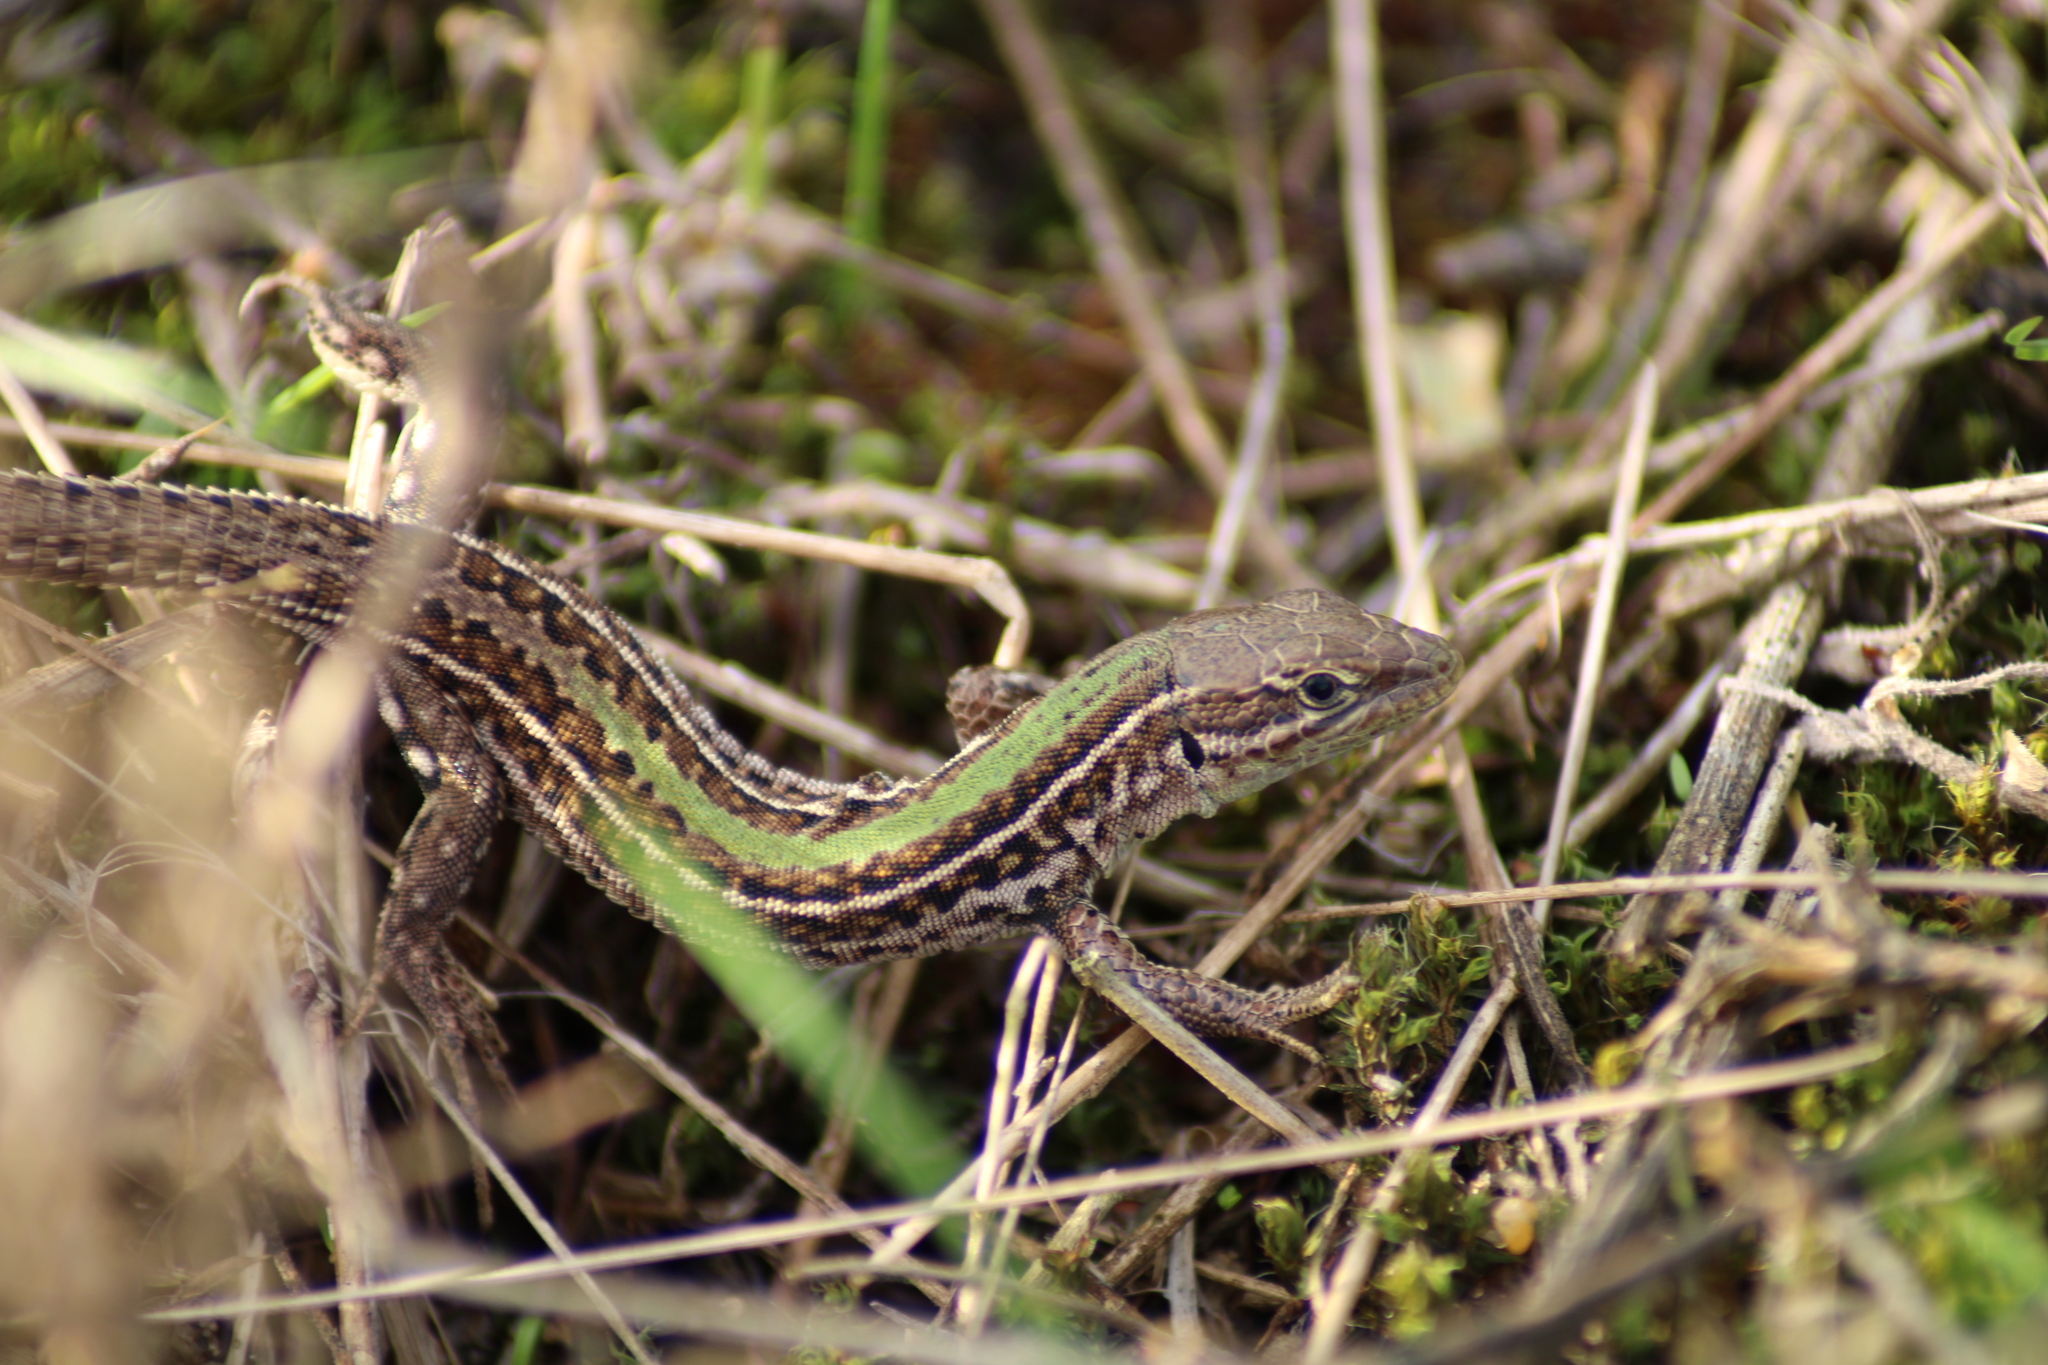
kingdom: Animalia
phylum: Chordata
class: Squamata
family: Lacertidae
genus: Podarcis
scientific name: Podarcis tauricus
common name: Balkan wall lizard
